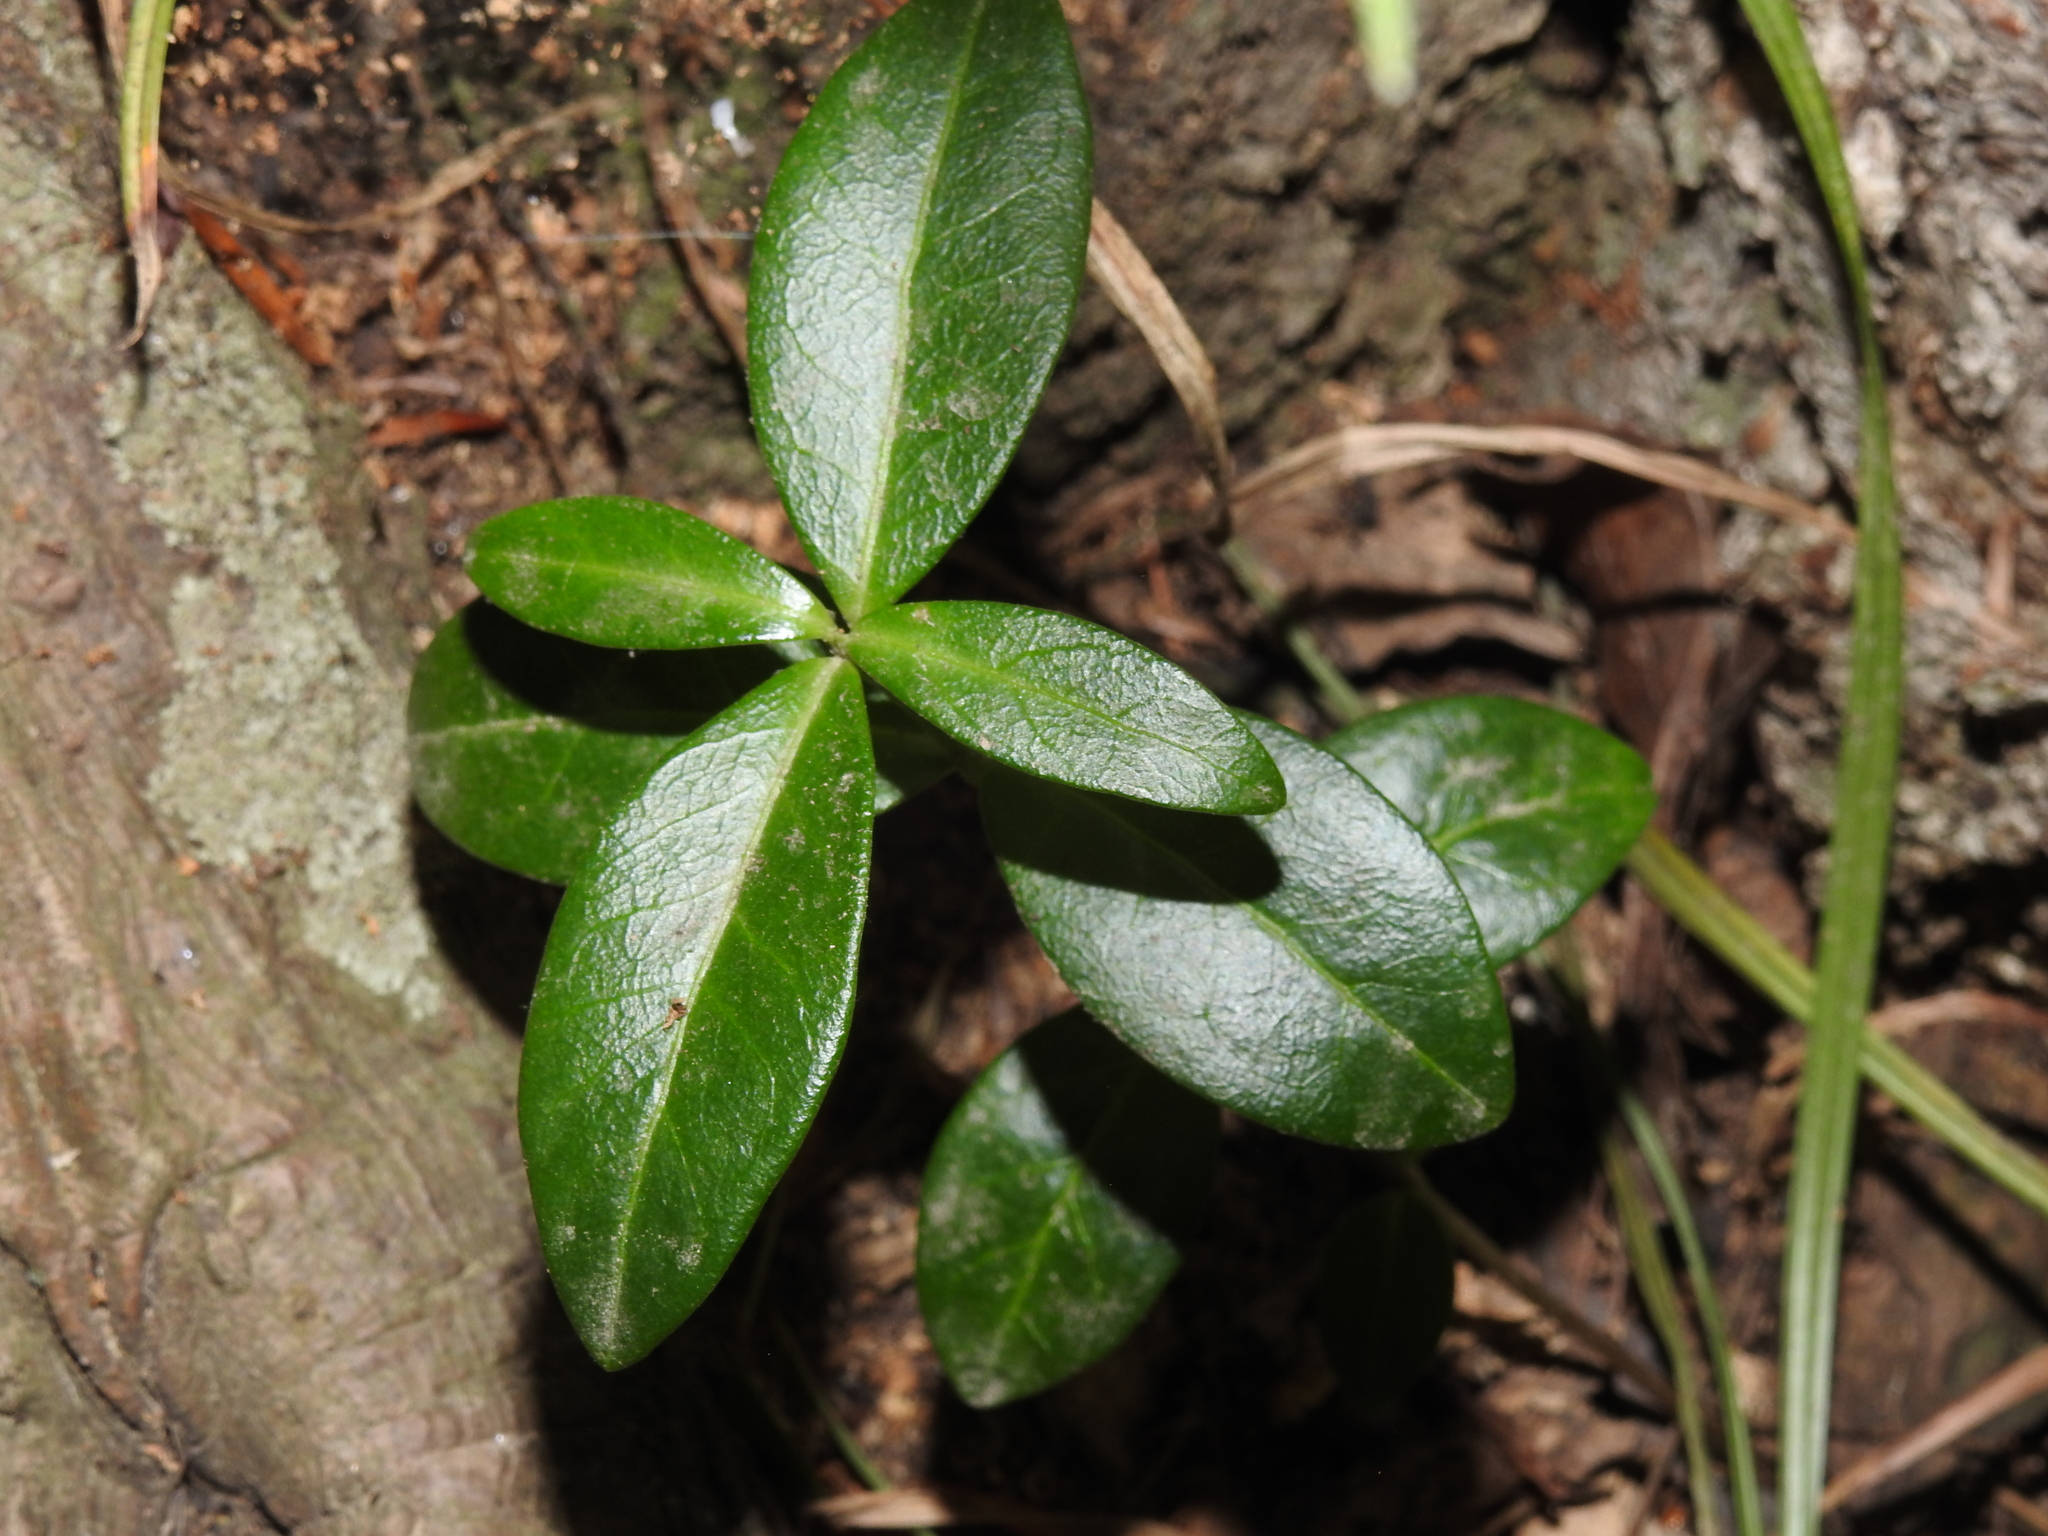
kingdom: Plantae
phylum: Tracheophyta
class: Magnoliopsida
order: Gentianales
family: Apocynaceae
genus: Vinca
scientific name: Vinca minor
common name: Lesser periwinkle
